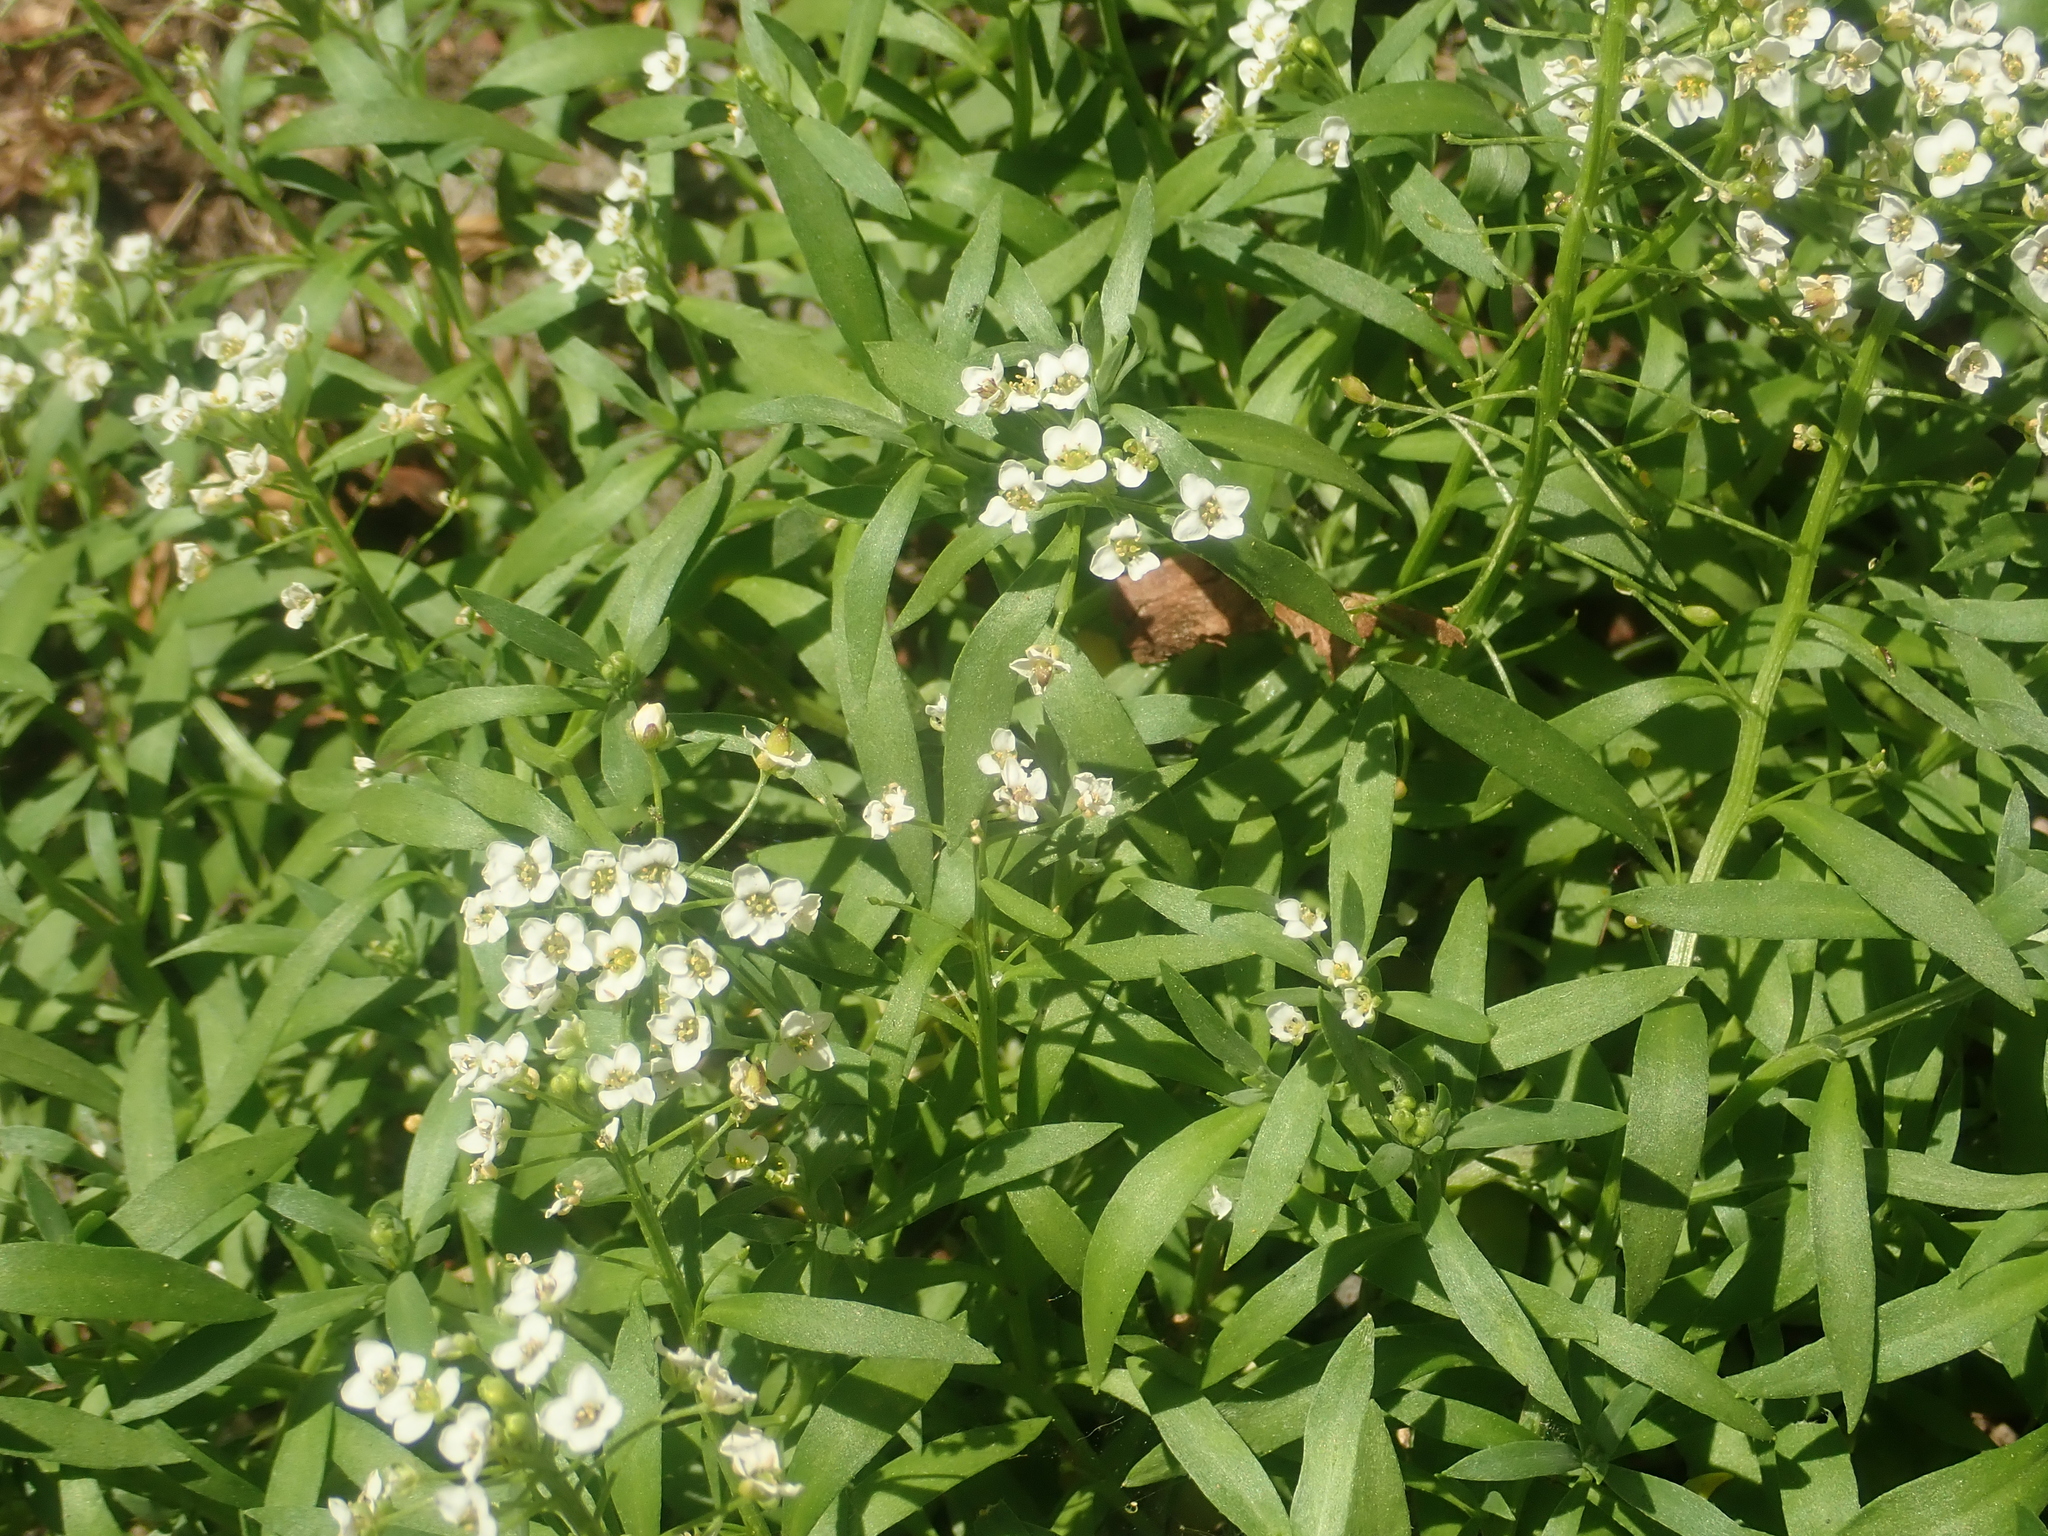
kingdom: Plantae
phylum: Tracheophyta
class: Magnoliopsida
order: Brassicales
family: Brassicaceae
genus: Lobularia
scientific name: Lobularia maritima
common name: Sweet alison
